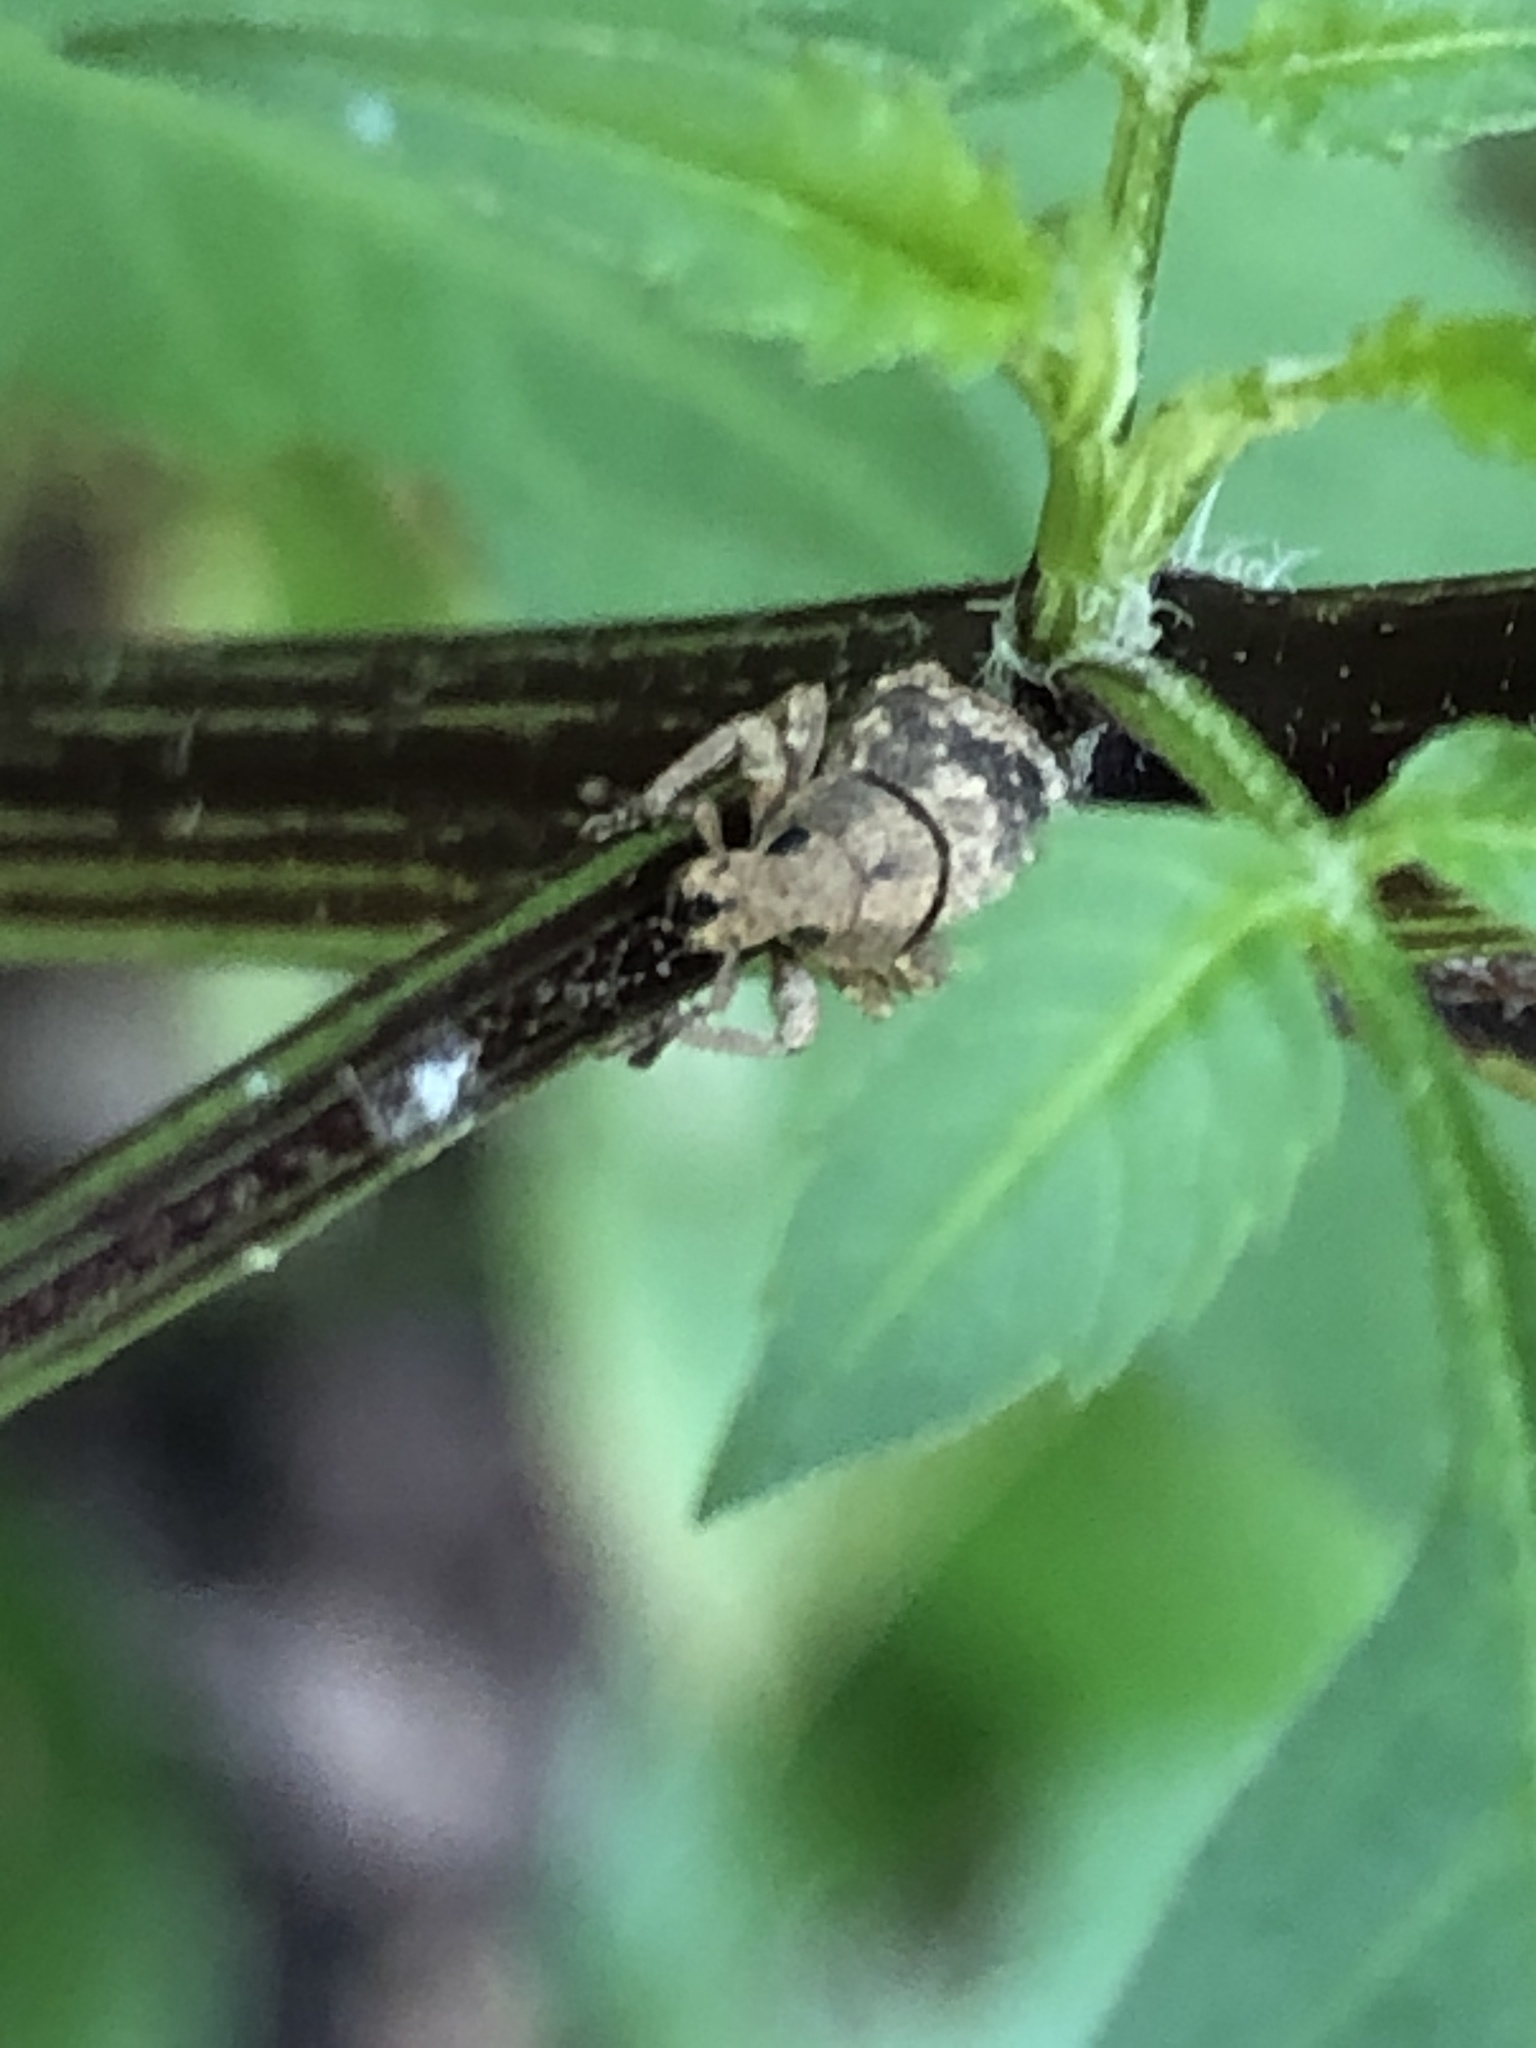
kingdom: Animalia
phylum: Arthropoda
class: Insecta
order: Coleoptera
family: Curculionidae
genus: Pseudocneorhinus
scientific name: Pseudocneorhinus bifasciatus
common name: Two-banded japanese weevil
